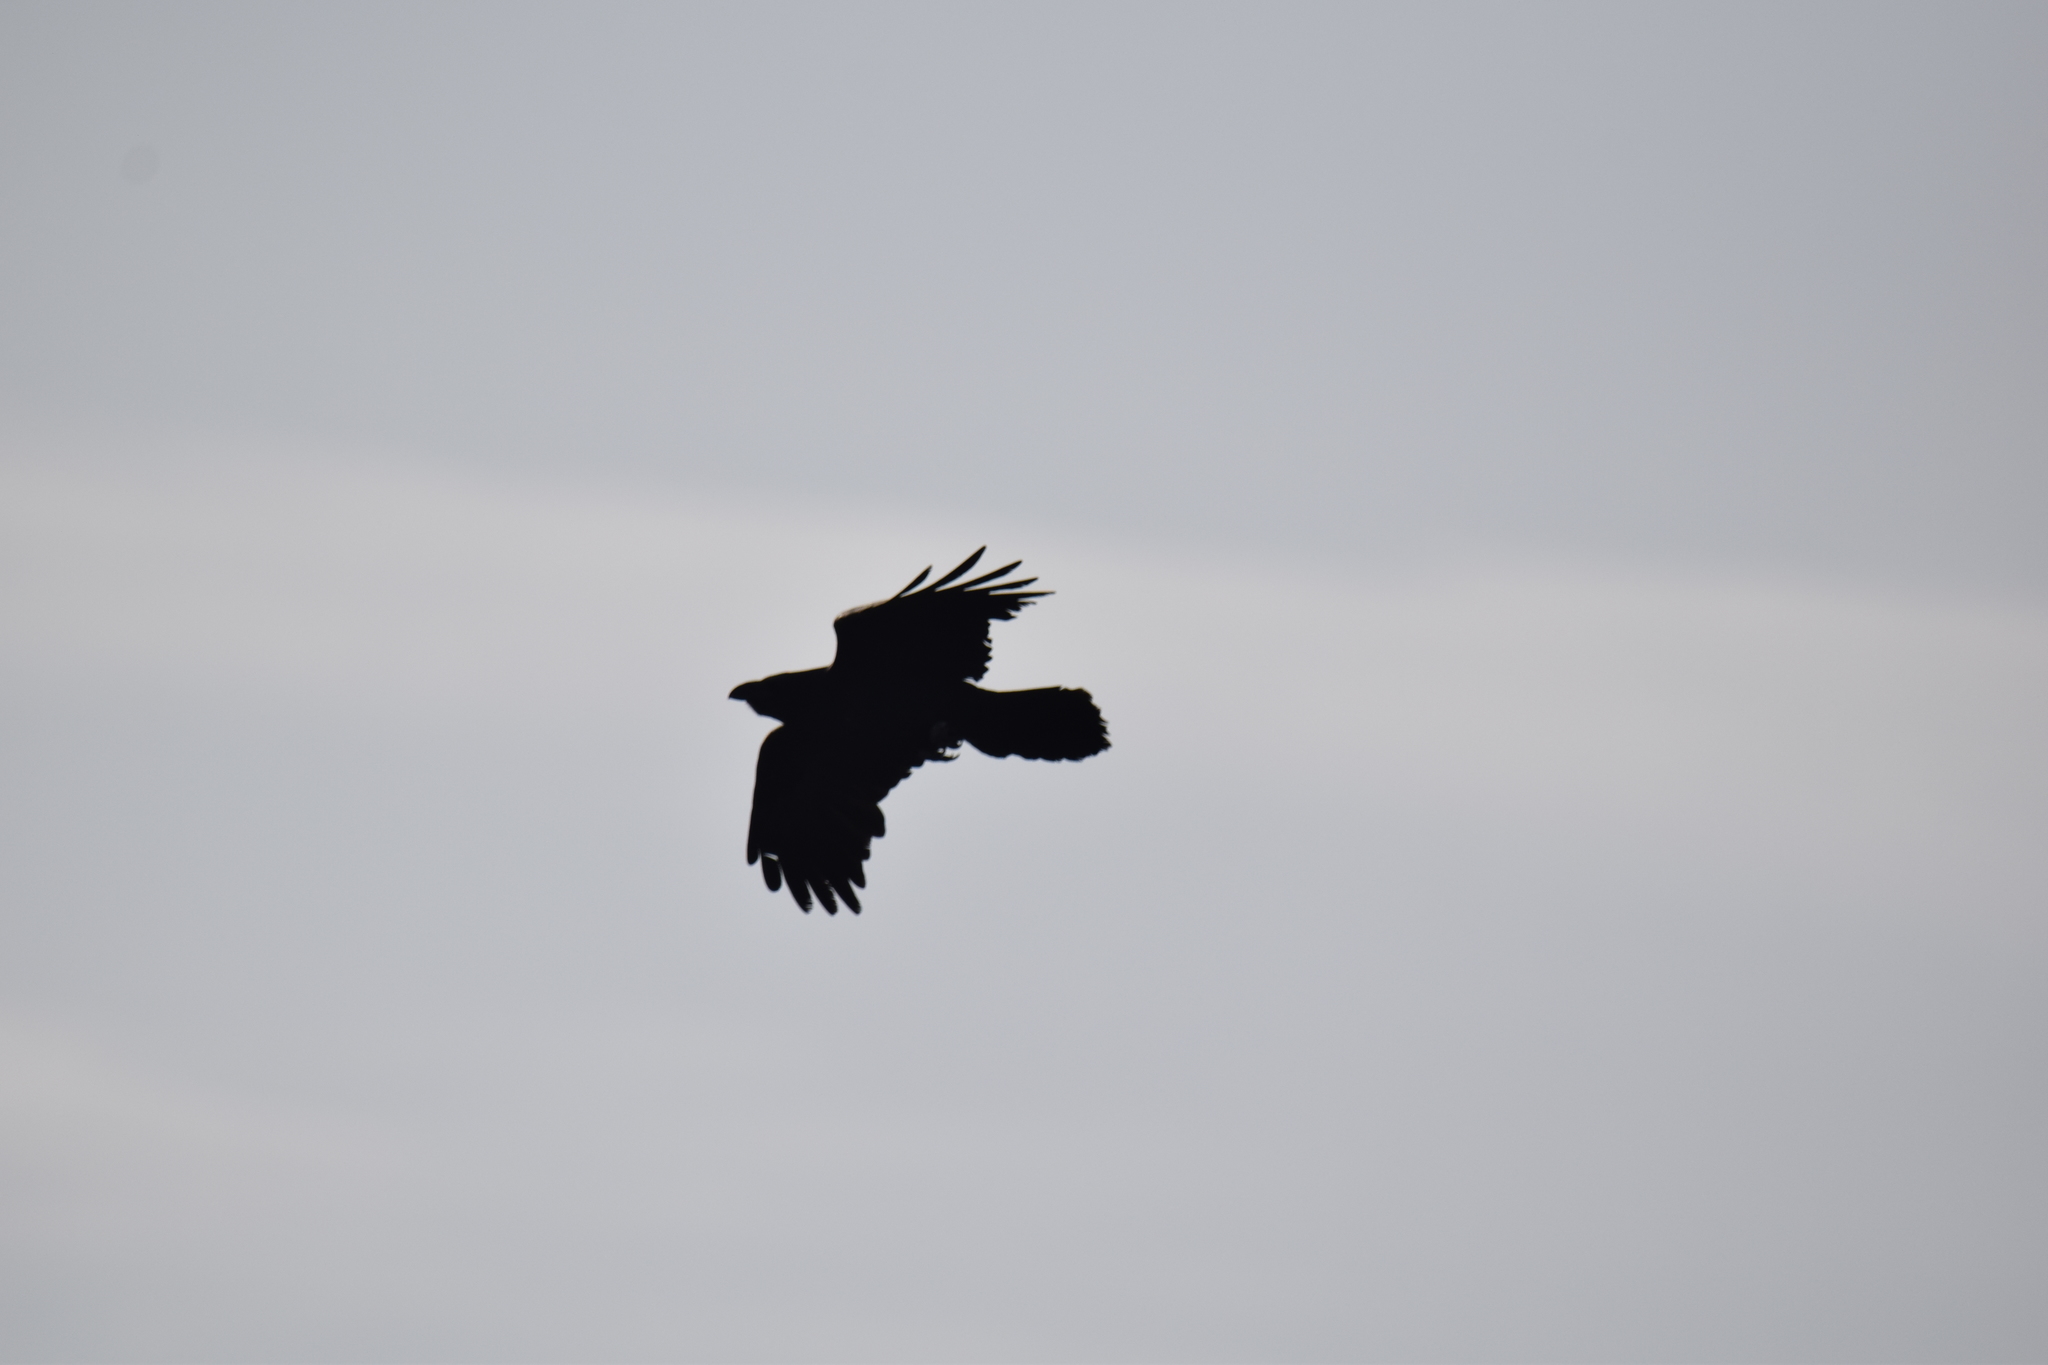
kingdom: Animalia
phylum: Chordata
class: Aves
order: Passeriformes
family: Corvidae
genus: Corvus
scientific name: Corvus corax
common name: Common raven
